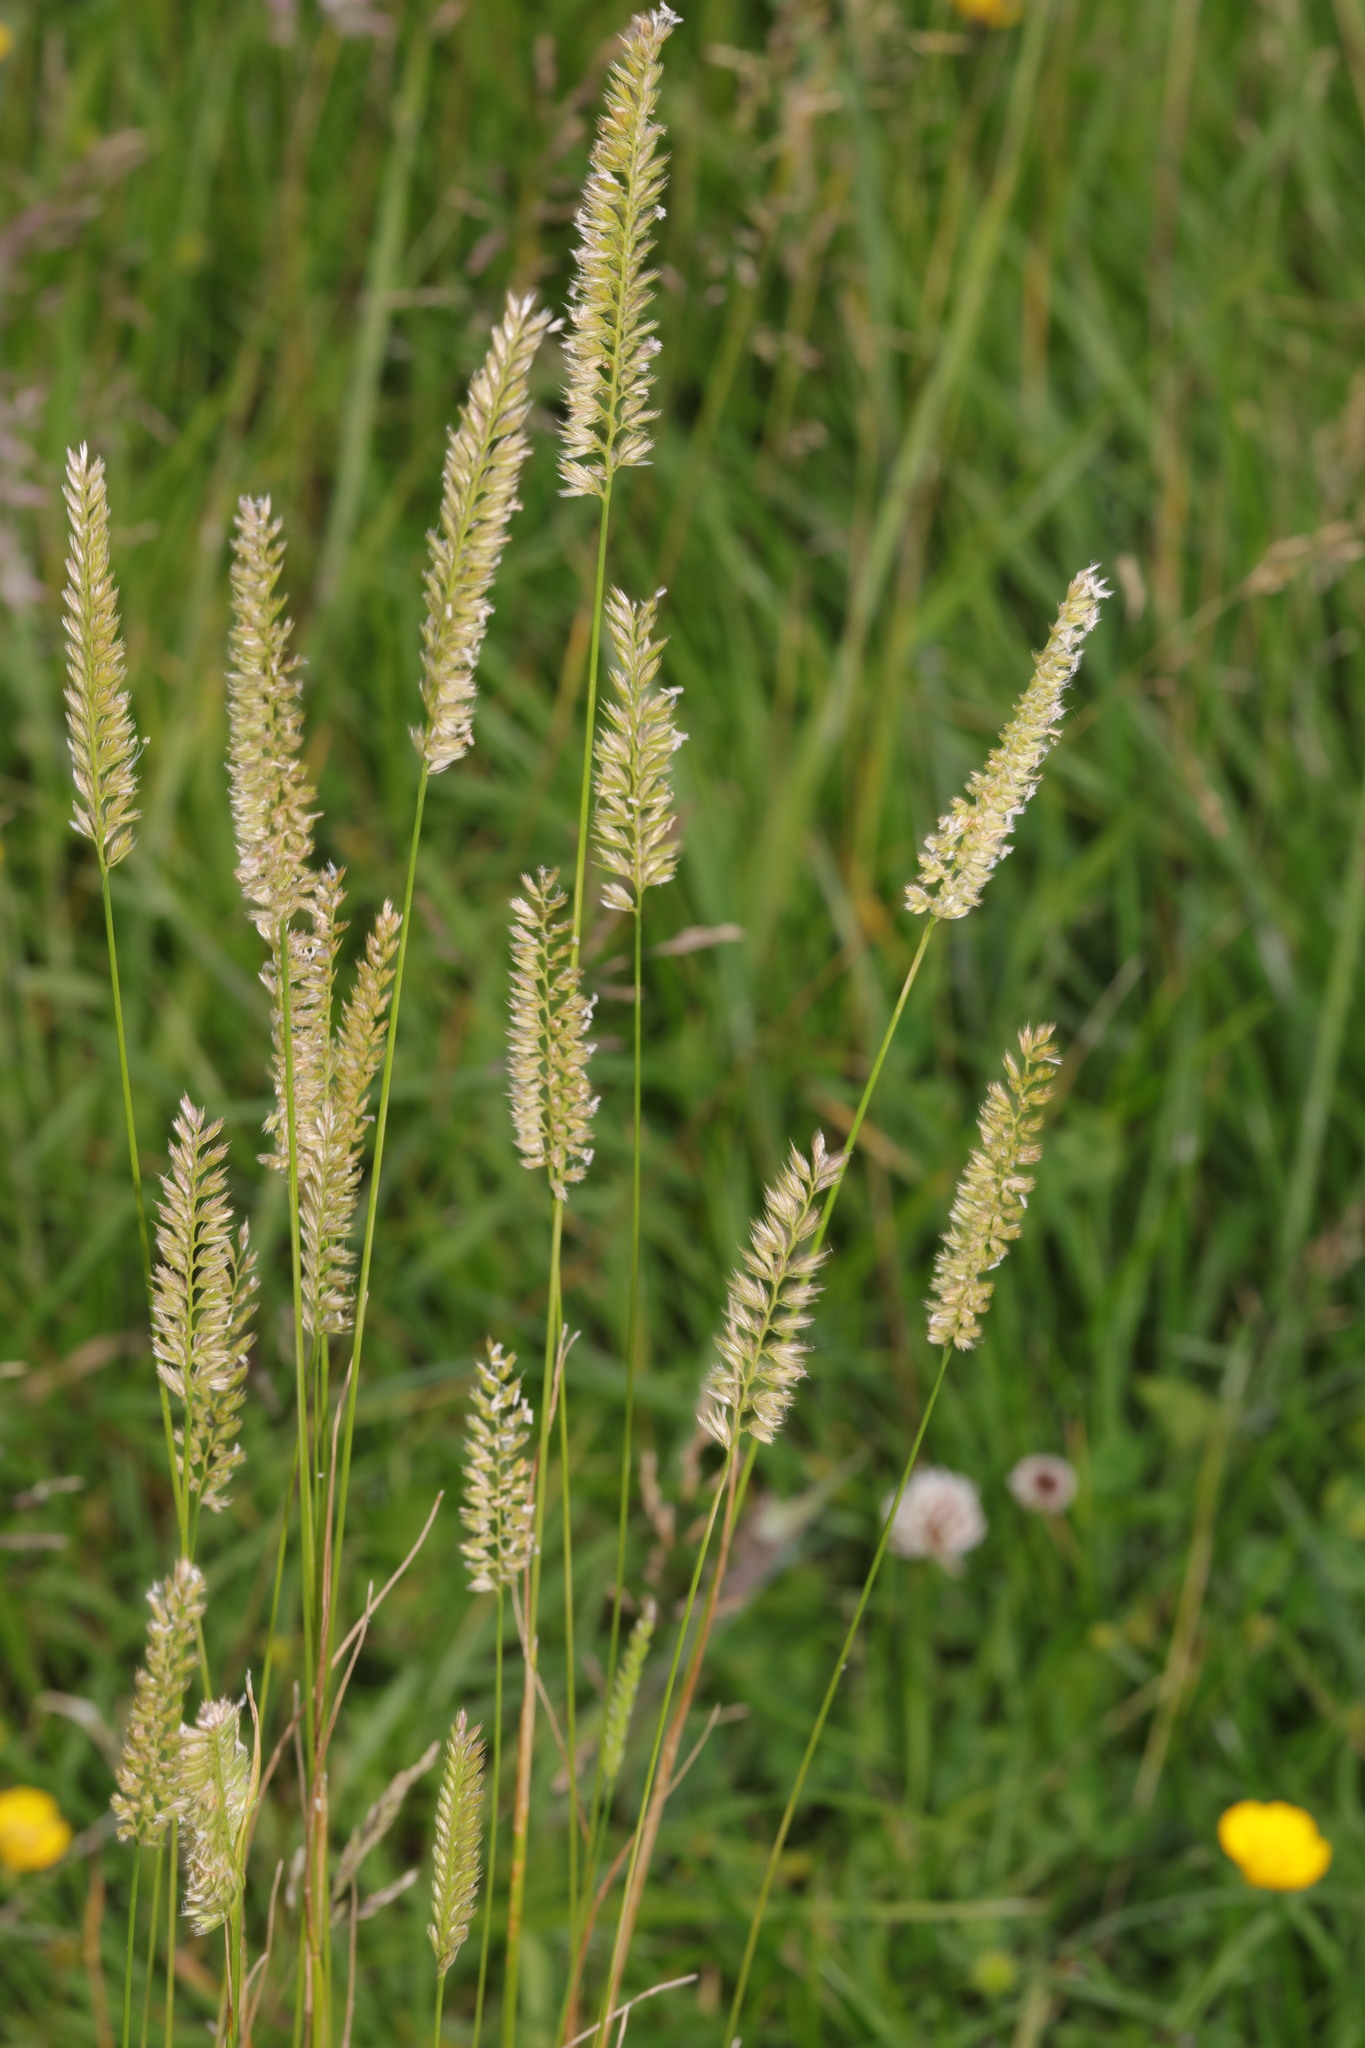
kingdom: Plantae
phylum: Tracheophyta
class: Liliopsida
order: Poales
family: Poaceae
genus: Cynosurus
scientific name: Cynosurus cristatus
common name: Crested dog's-tail
